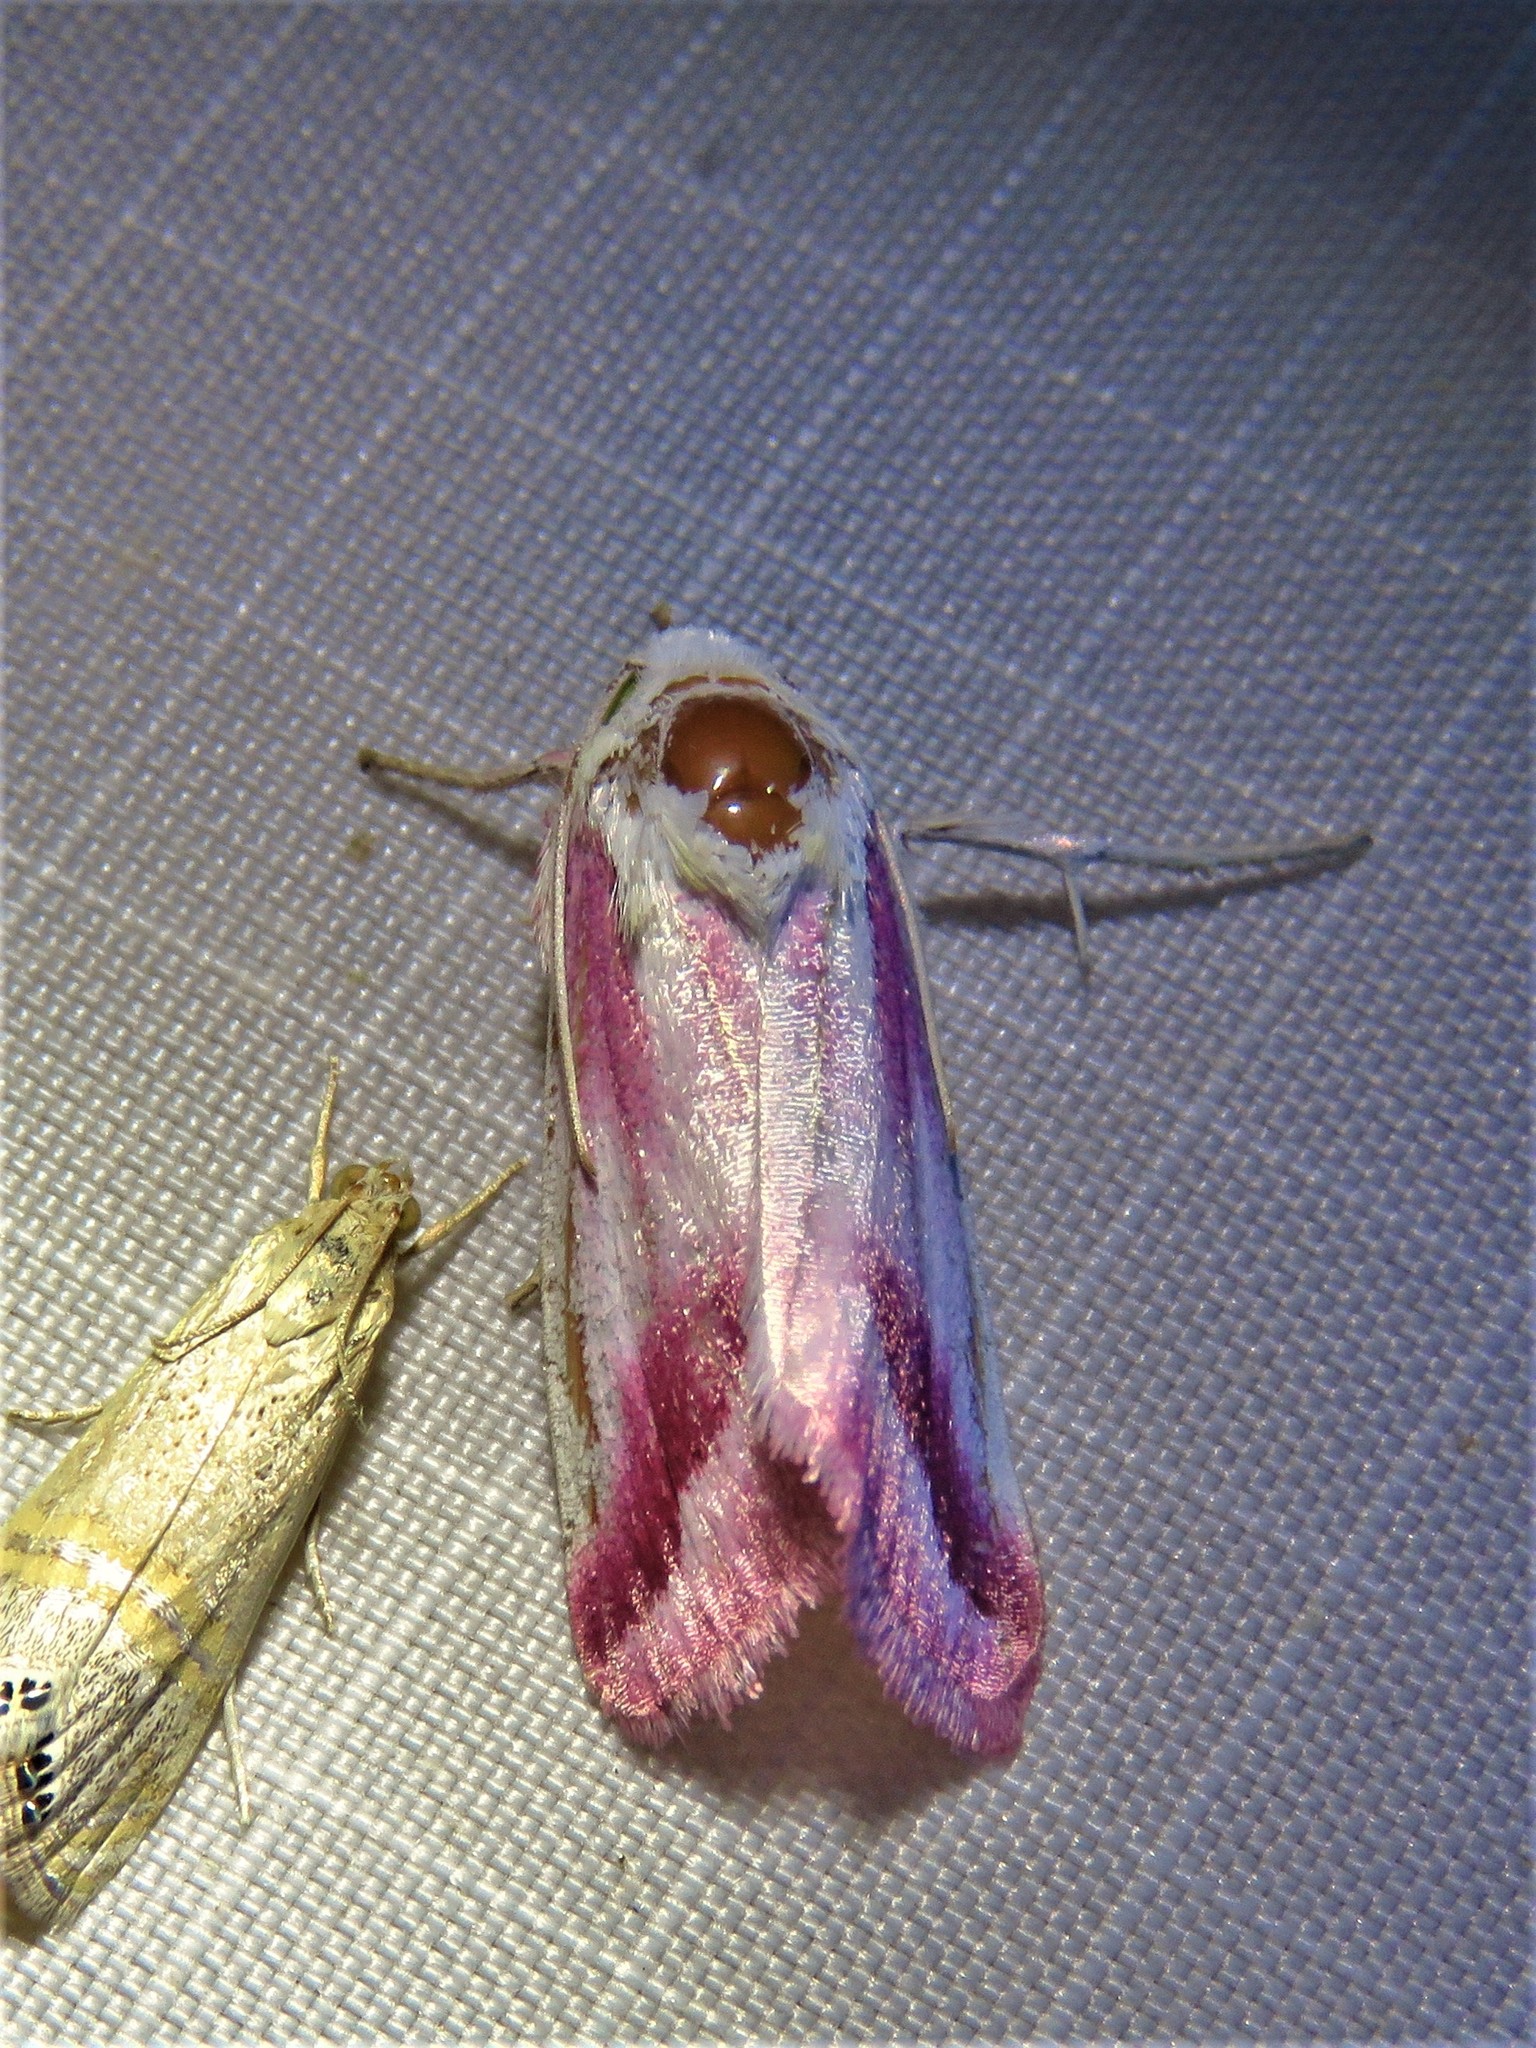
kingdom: Animalia
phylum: Arthropoda
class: Insecta
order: Lepidoptera
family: Noctuidae
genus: Schinia
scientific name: Schinia gaurae
